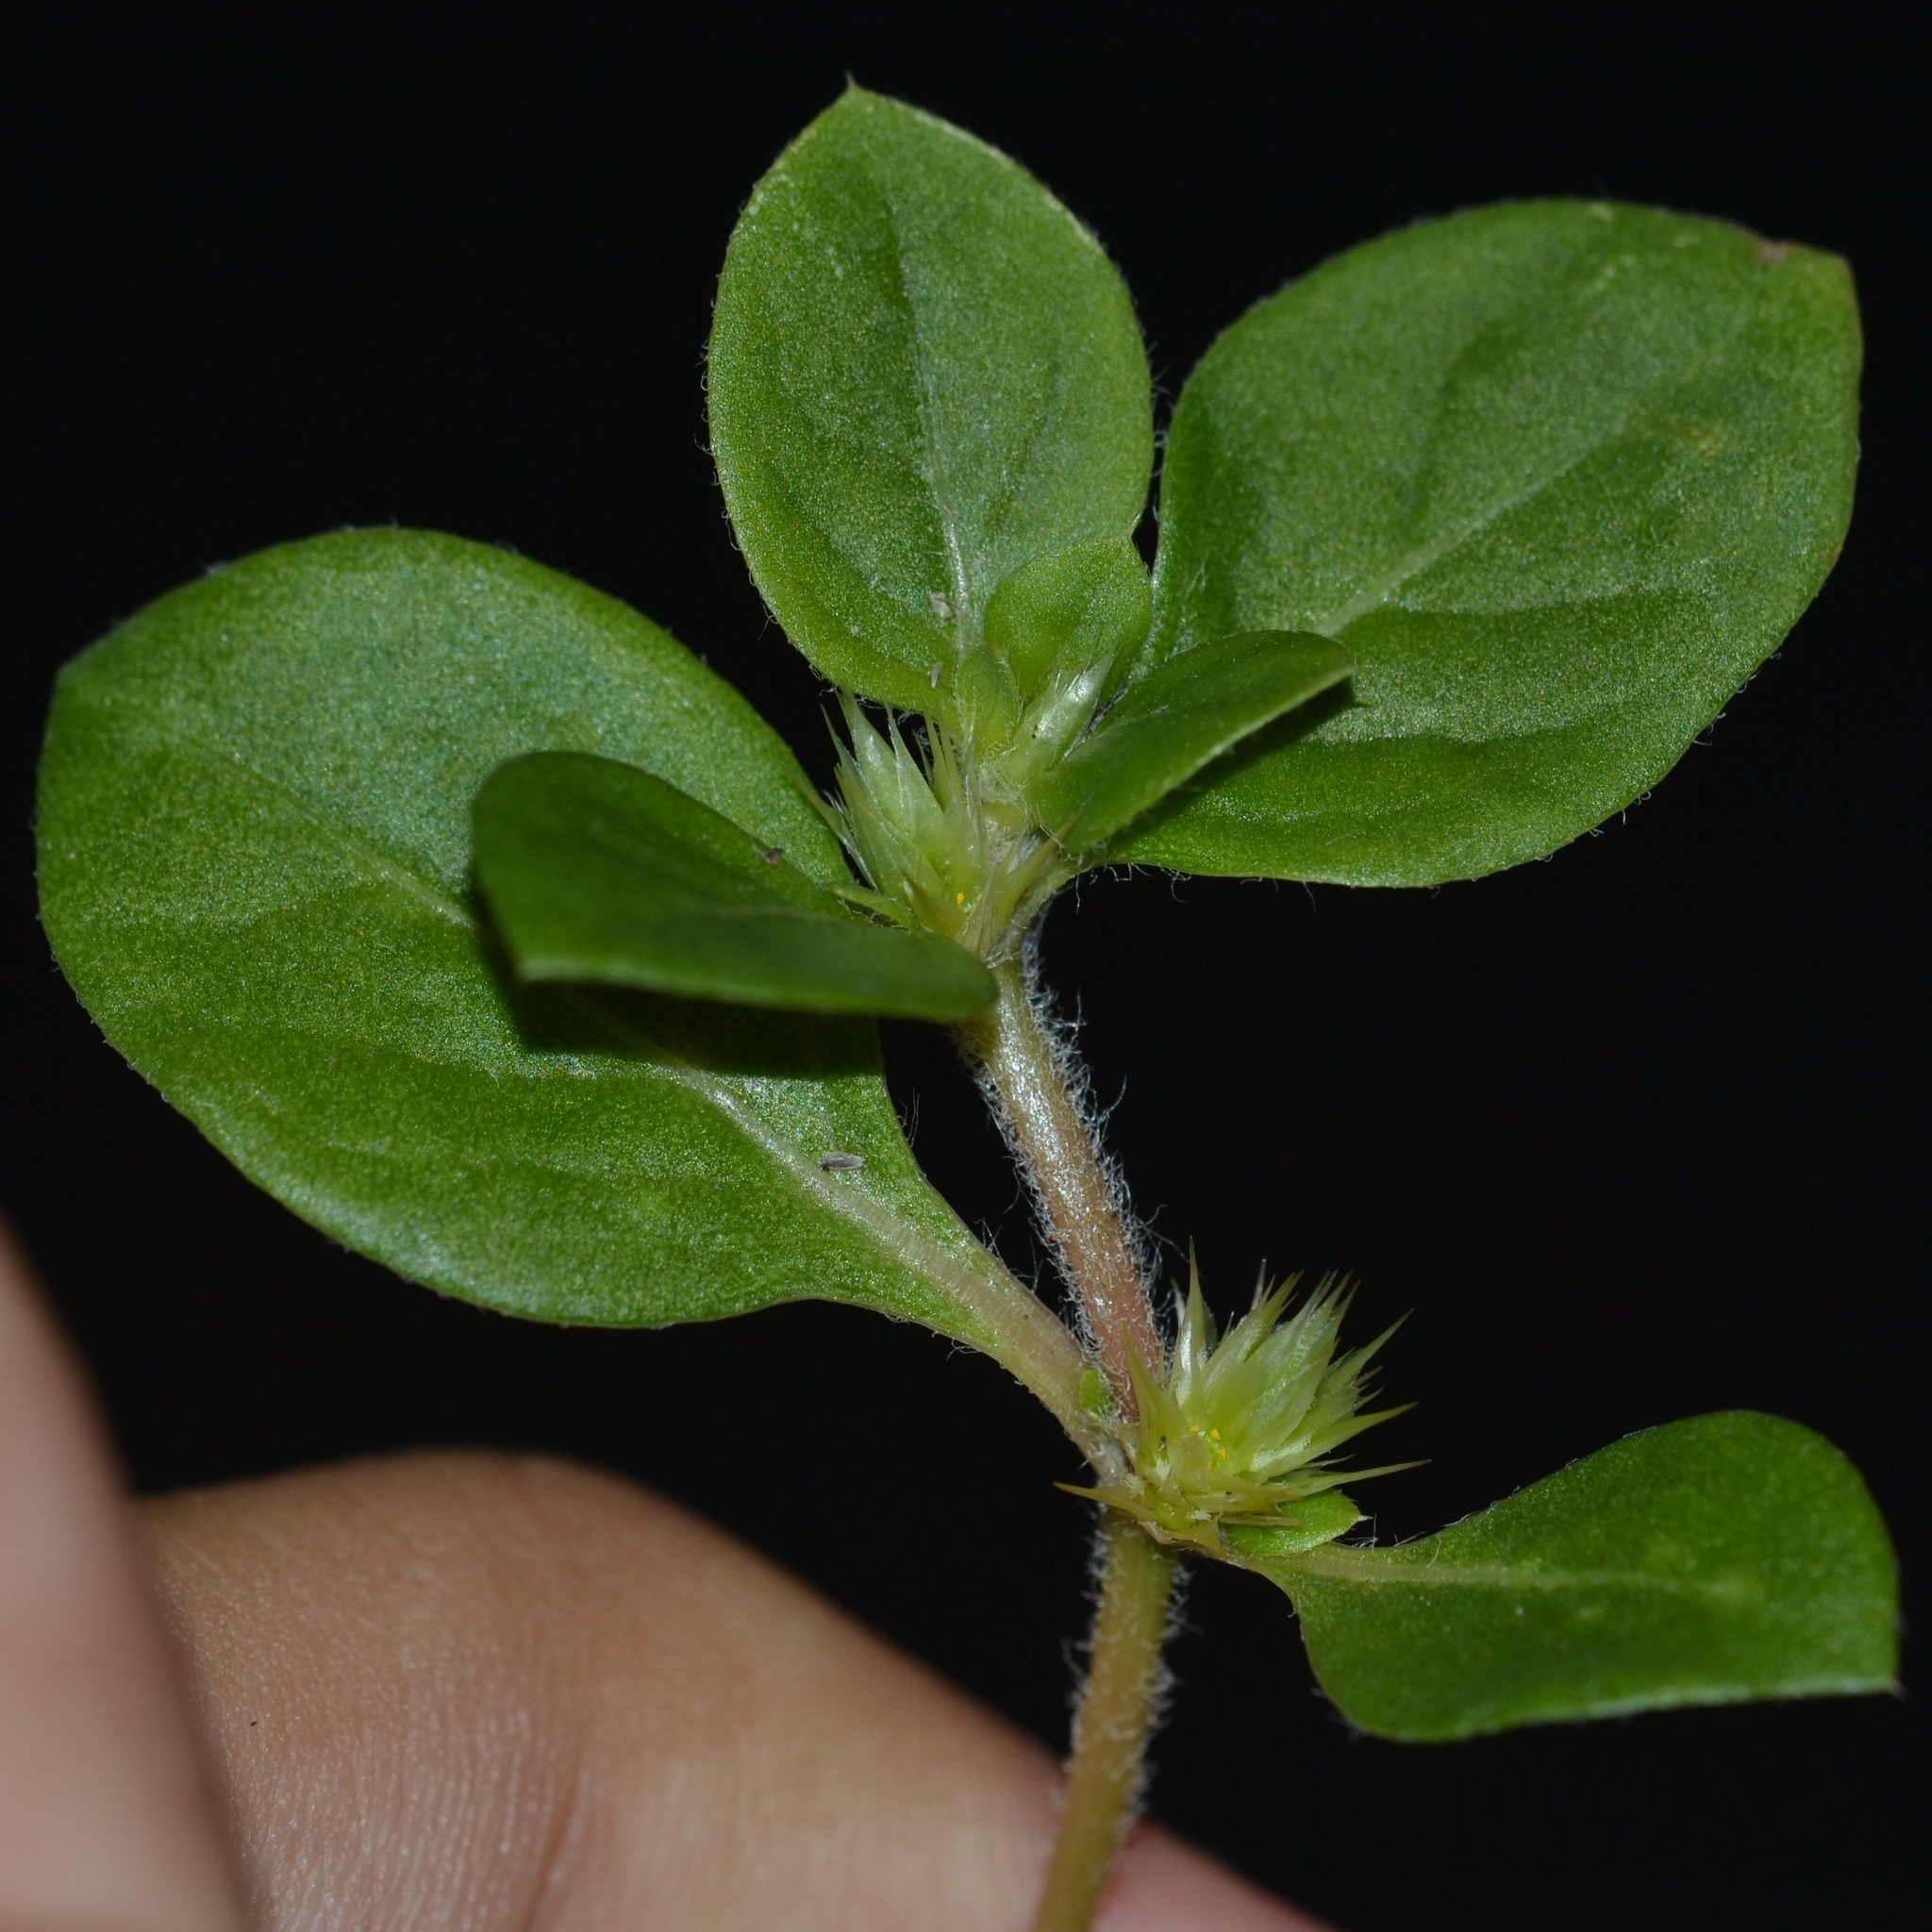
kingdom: Plantae
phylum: Tracheophyta
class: Magnoliopsida
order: Caryophyllales
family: Amaranthaceae
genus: Alternanthera
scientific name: Alternanthera pungens
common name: Khakiweed
